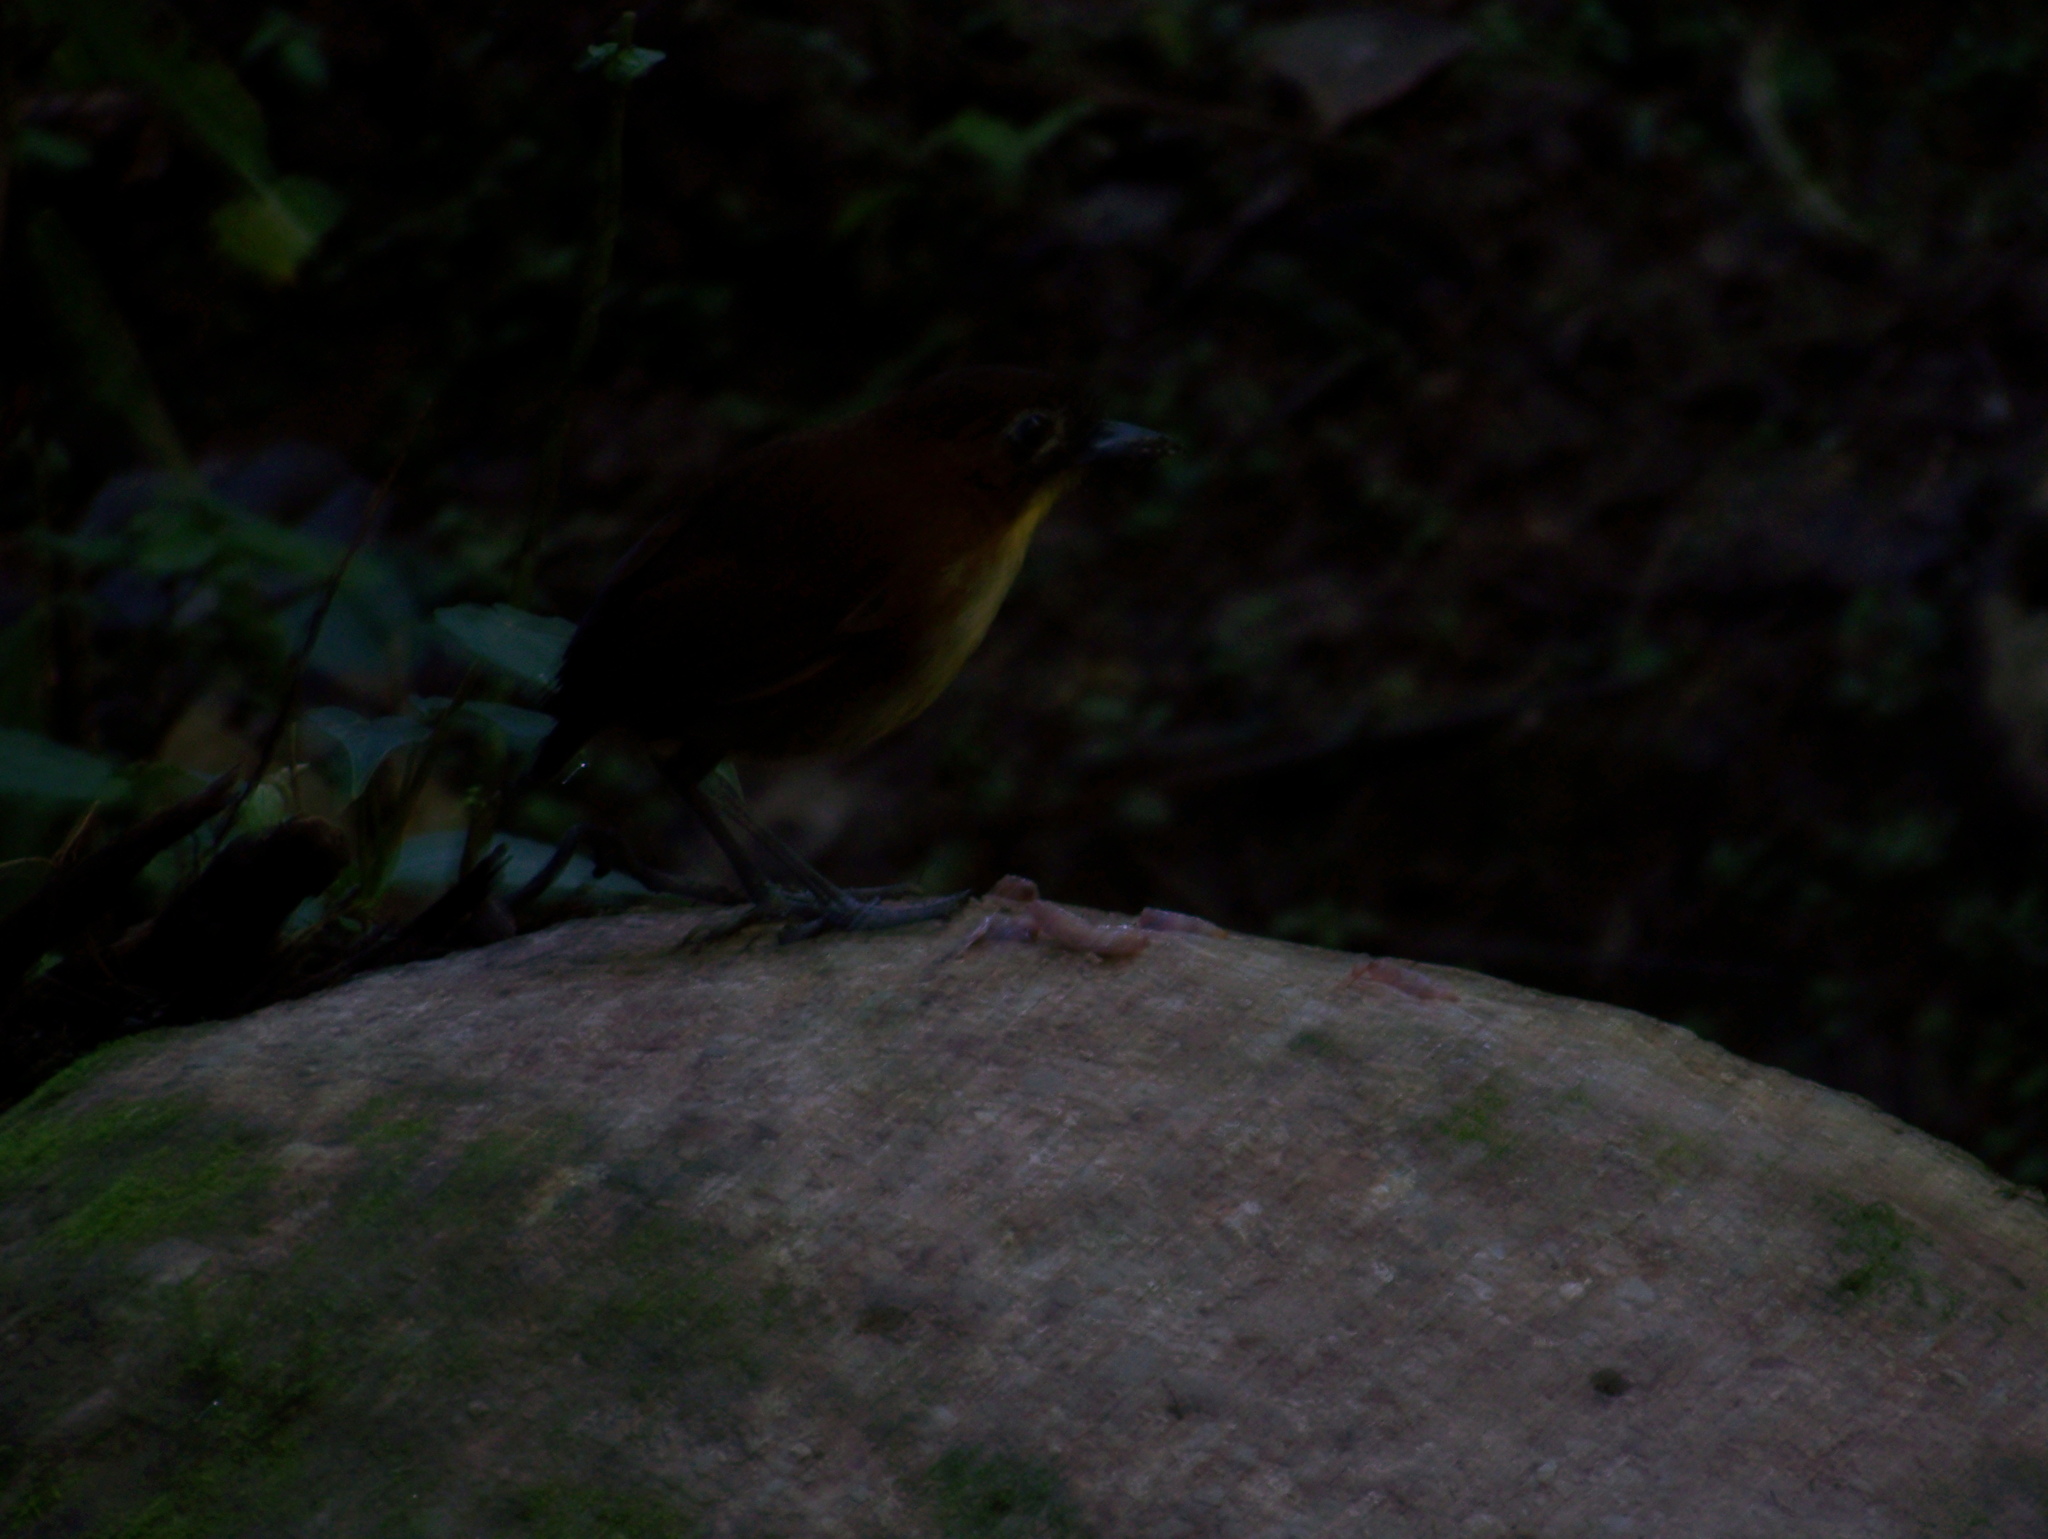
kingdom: Animalia
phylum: Chordata
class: Aves
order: Passeriformes
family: Grallariidae
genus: Grallaria
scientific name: Grallaria flavotincta
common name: Yellow-breasted antpitta
